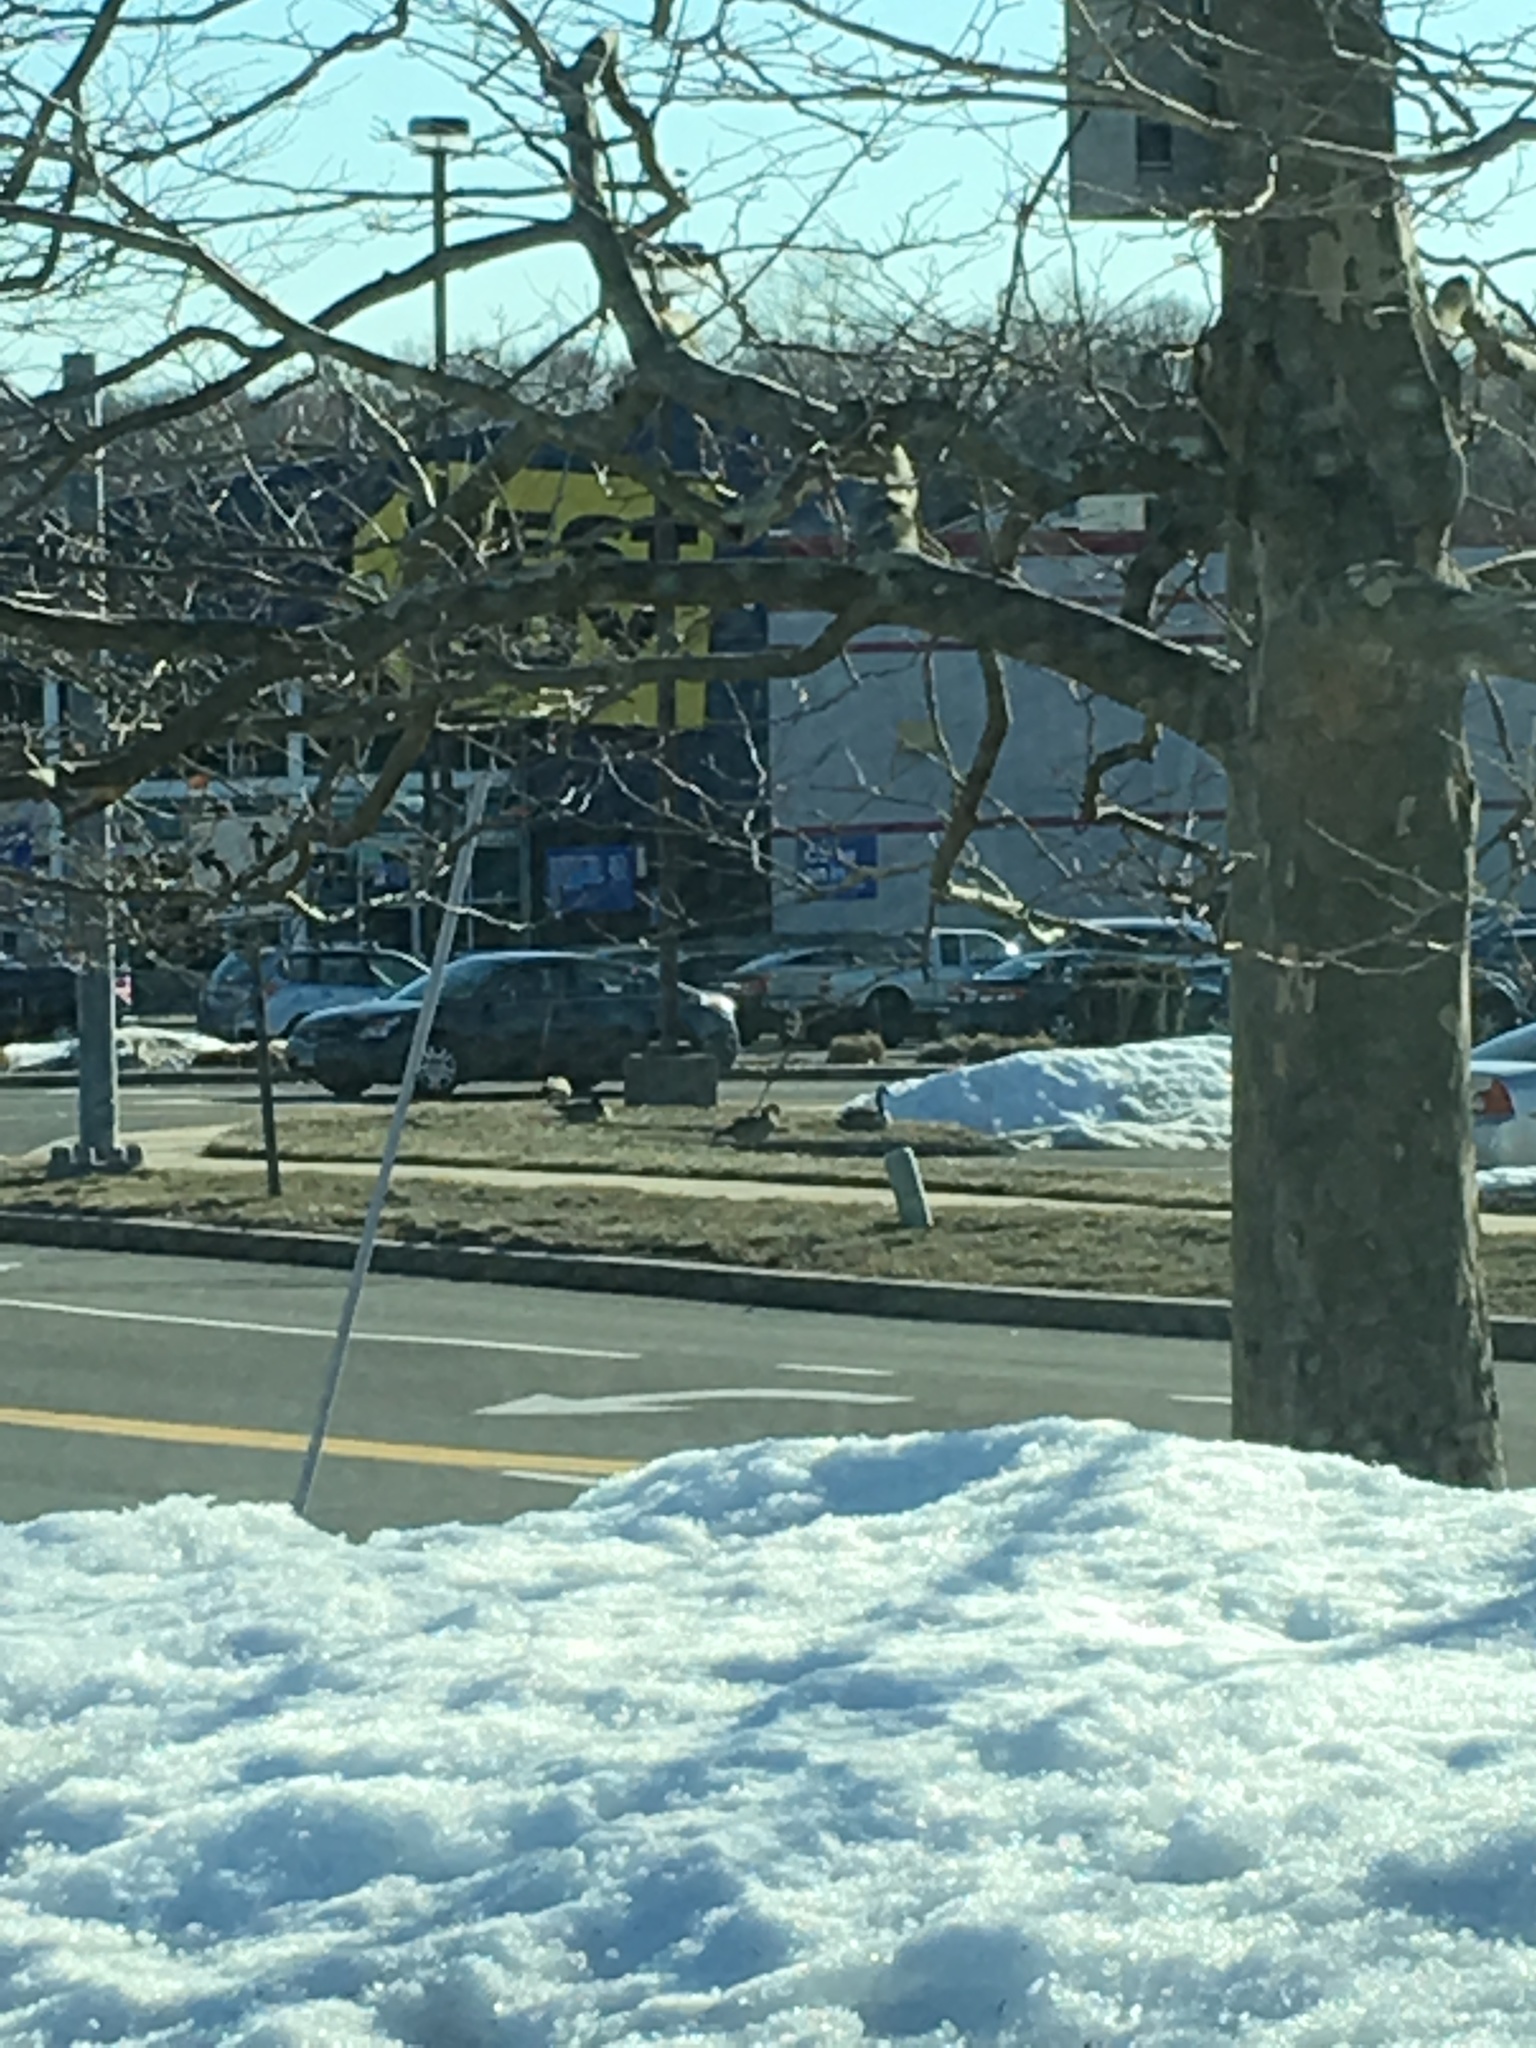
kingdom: Animalia
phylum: Chordata
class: Aves
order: Anseriformes
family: Anatidae
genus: Branta
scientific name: Branta canadensis
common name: Canada goose
